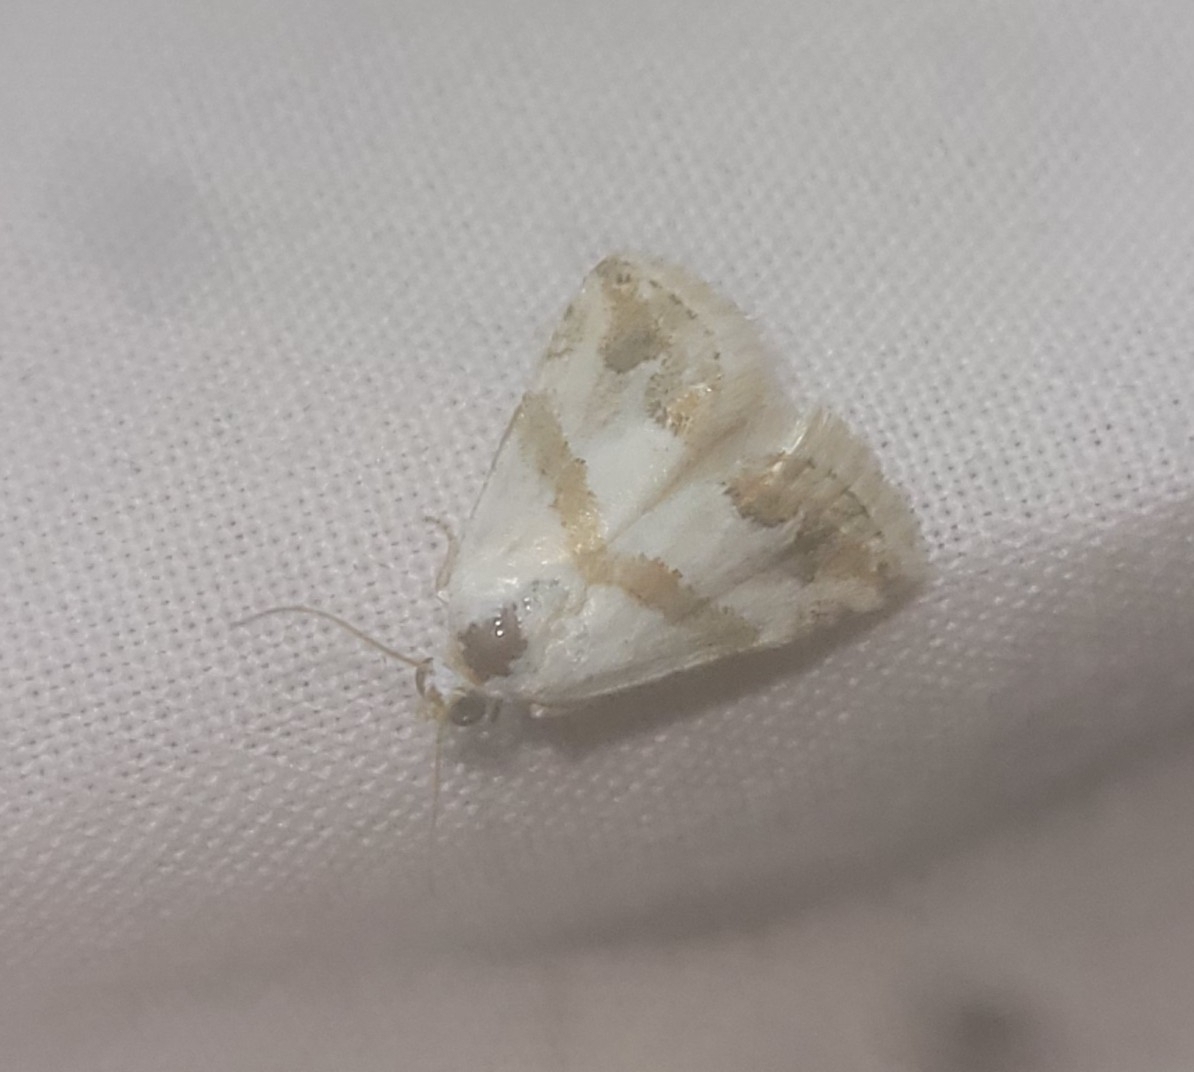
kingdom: Animalia
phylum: Arthropoda
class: Insecta
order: Lepidoptera
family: Noctuidae
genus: Eublemma
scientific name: Eublemma candidana
